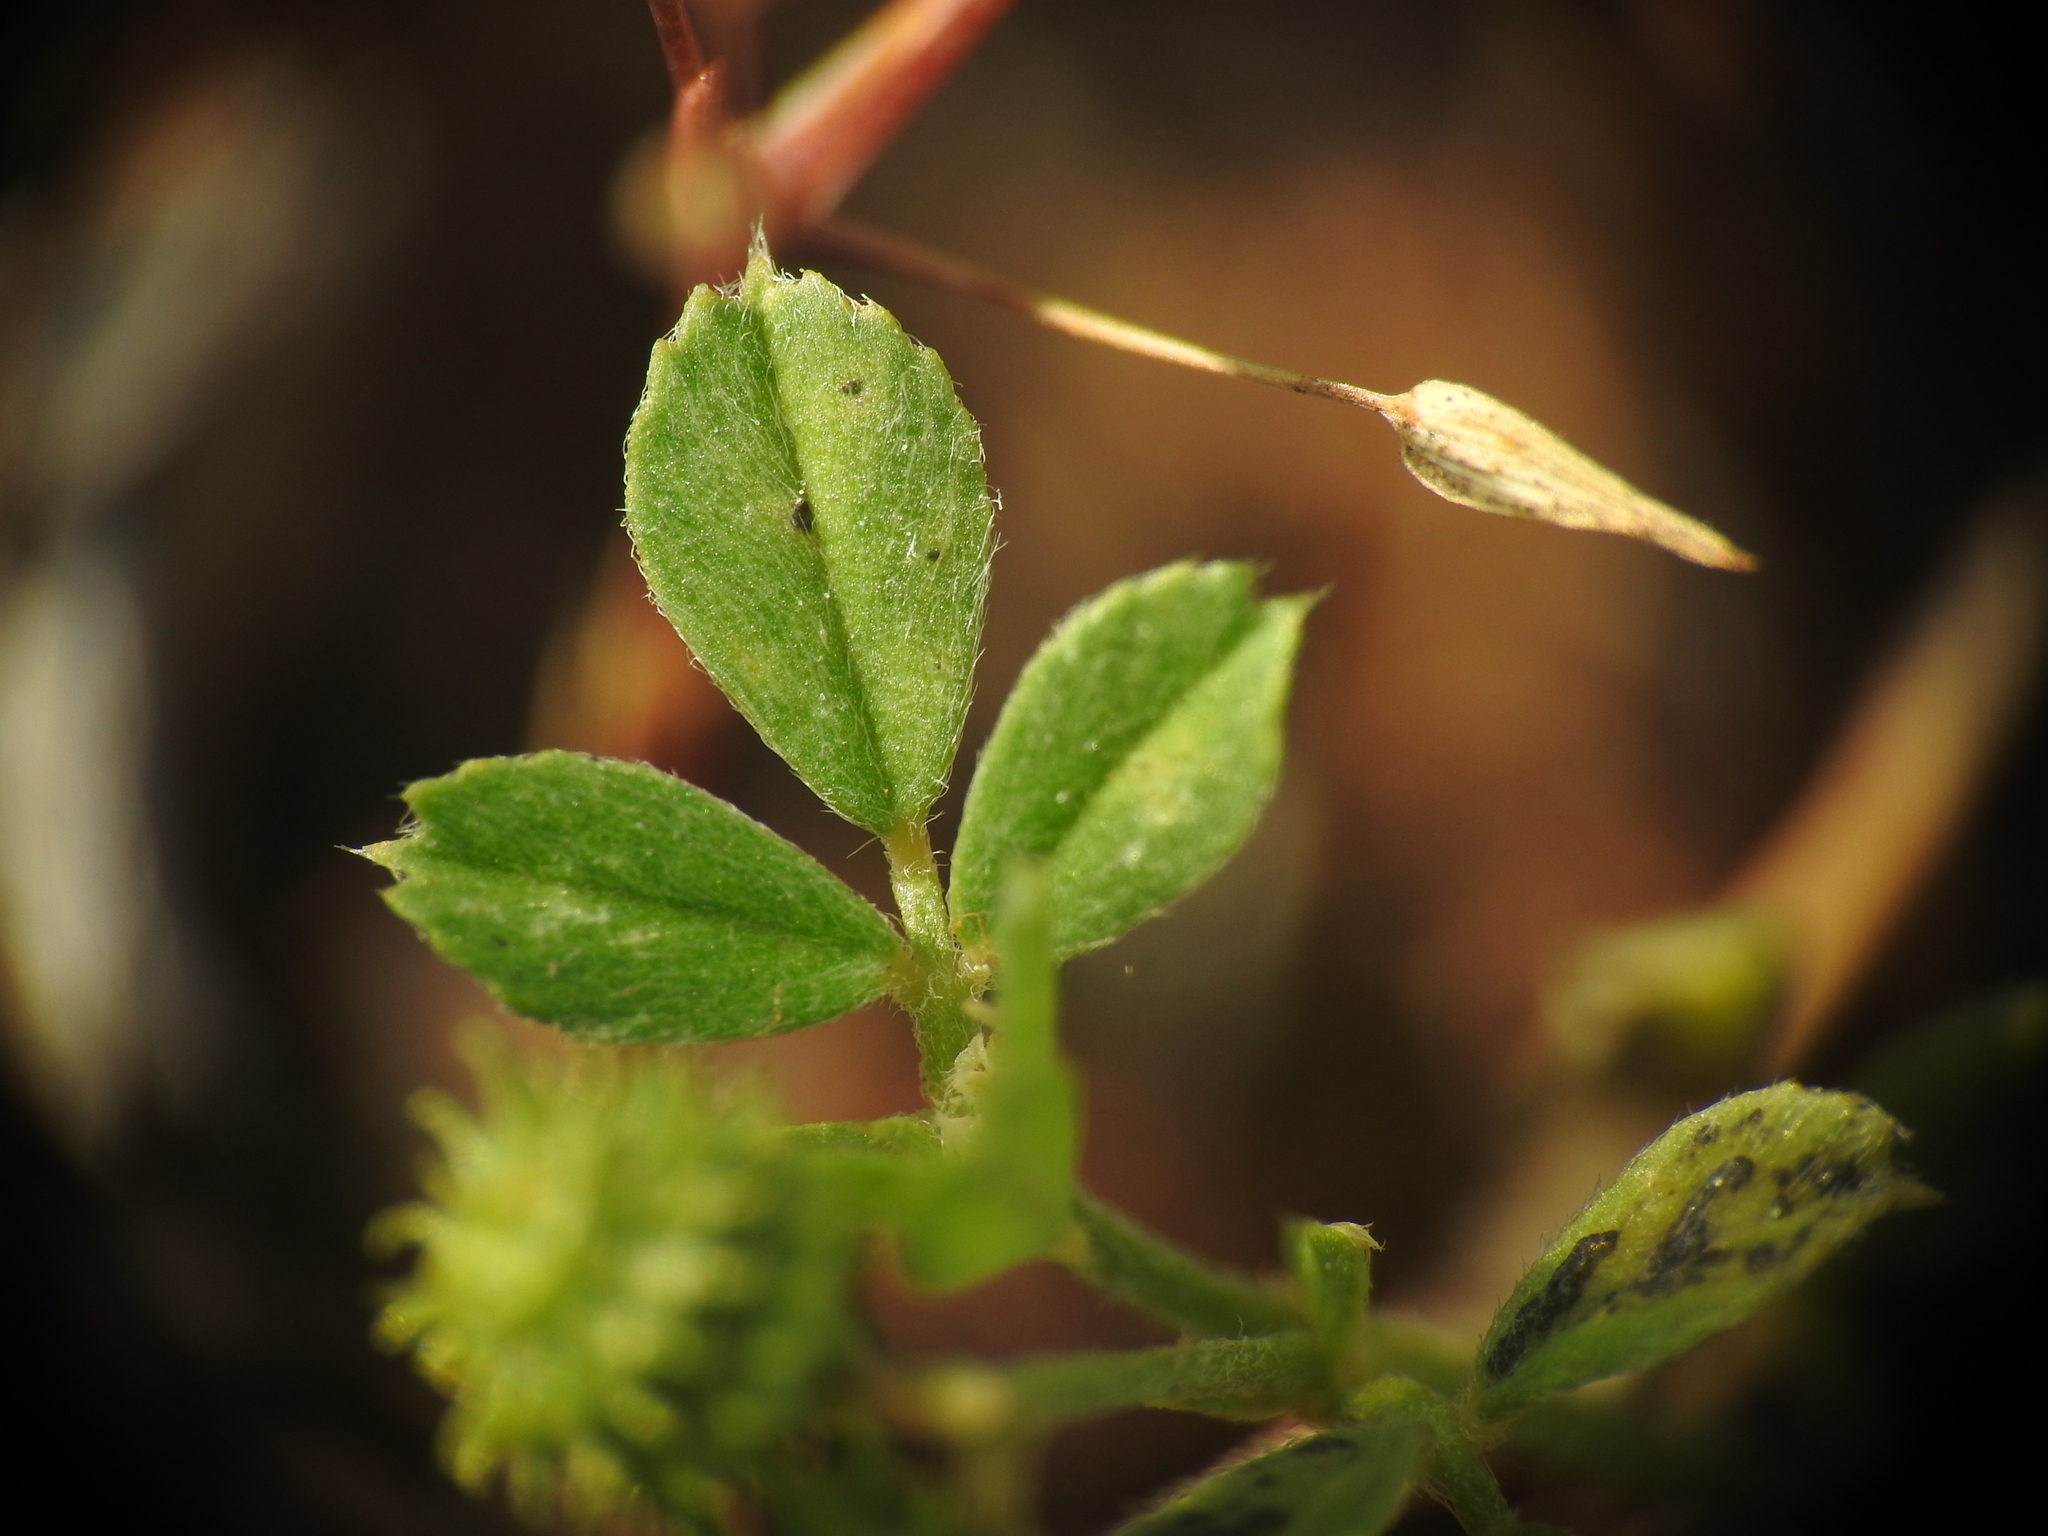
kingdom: Plantae
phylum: Tracheophyta
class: Magnoliopsida
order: Fabales
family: Fabaceae
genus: Medicago
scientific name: Medicago rigidula
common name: Tifton medic
